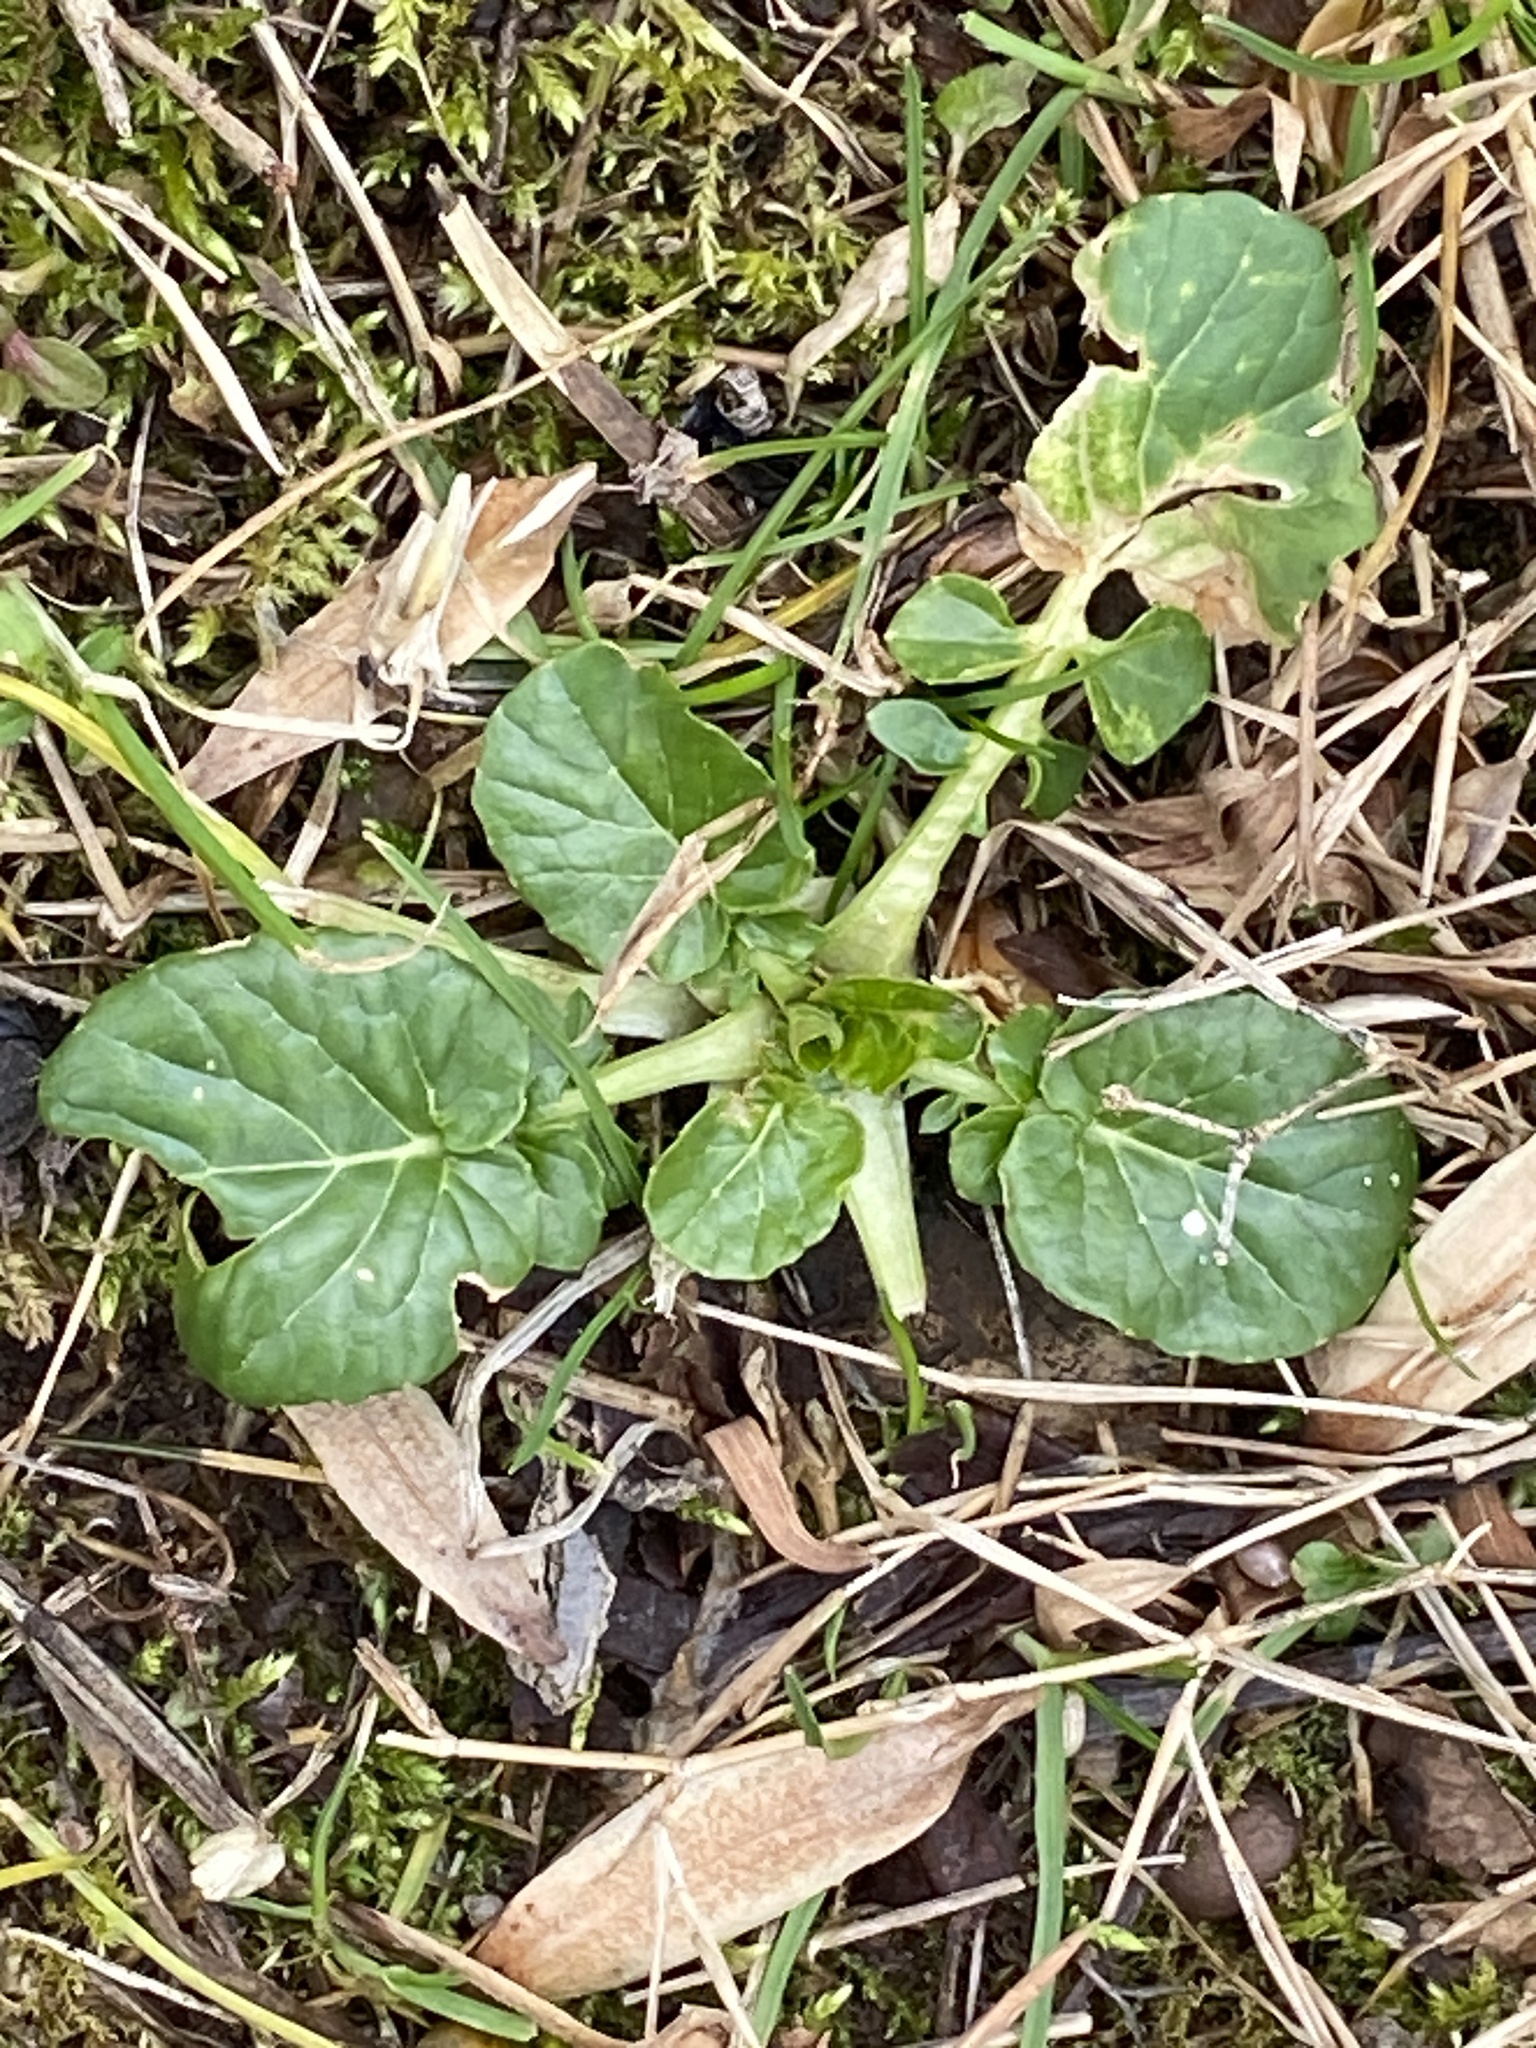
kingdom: Plantae
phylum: Tracheophyta
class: Magnoliopsida
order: Brassicales
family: Brassicaceae
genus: Barbarea
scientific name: Barbarea vulgaris
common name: Cressy-greens
